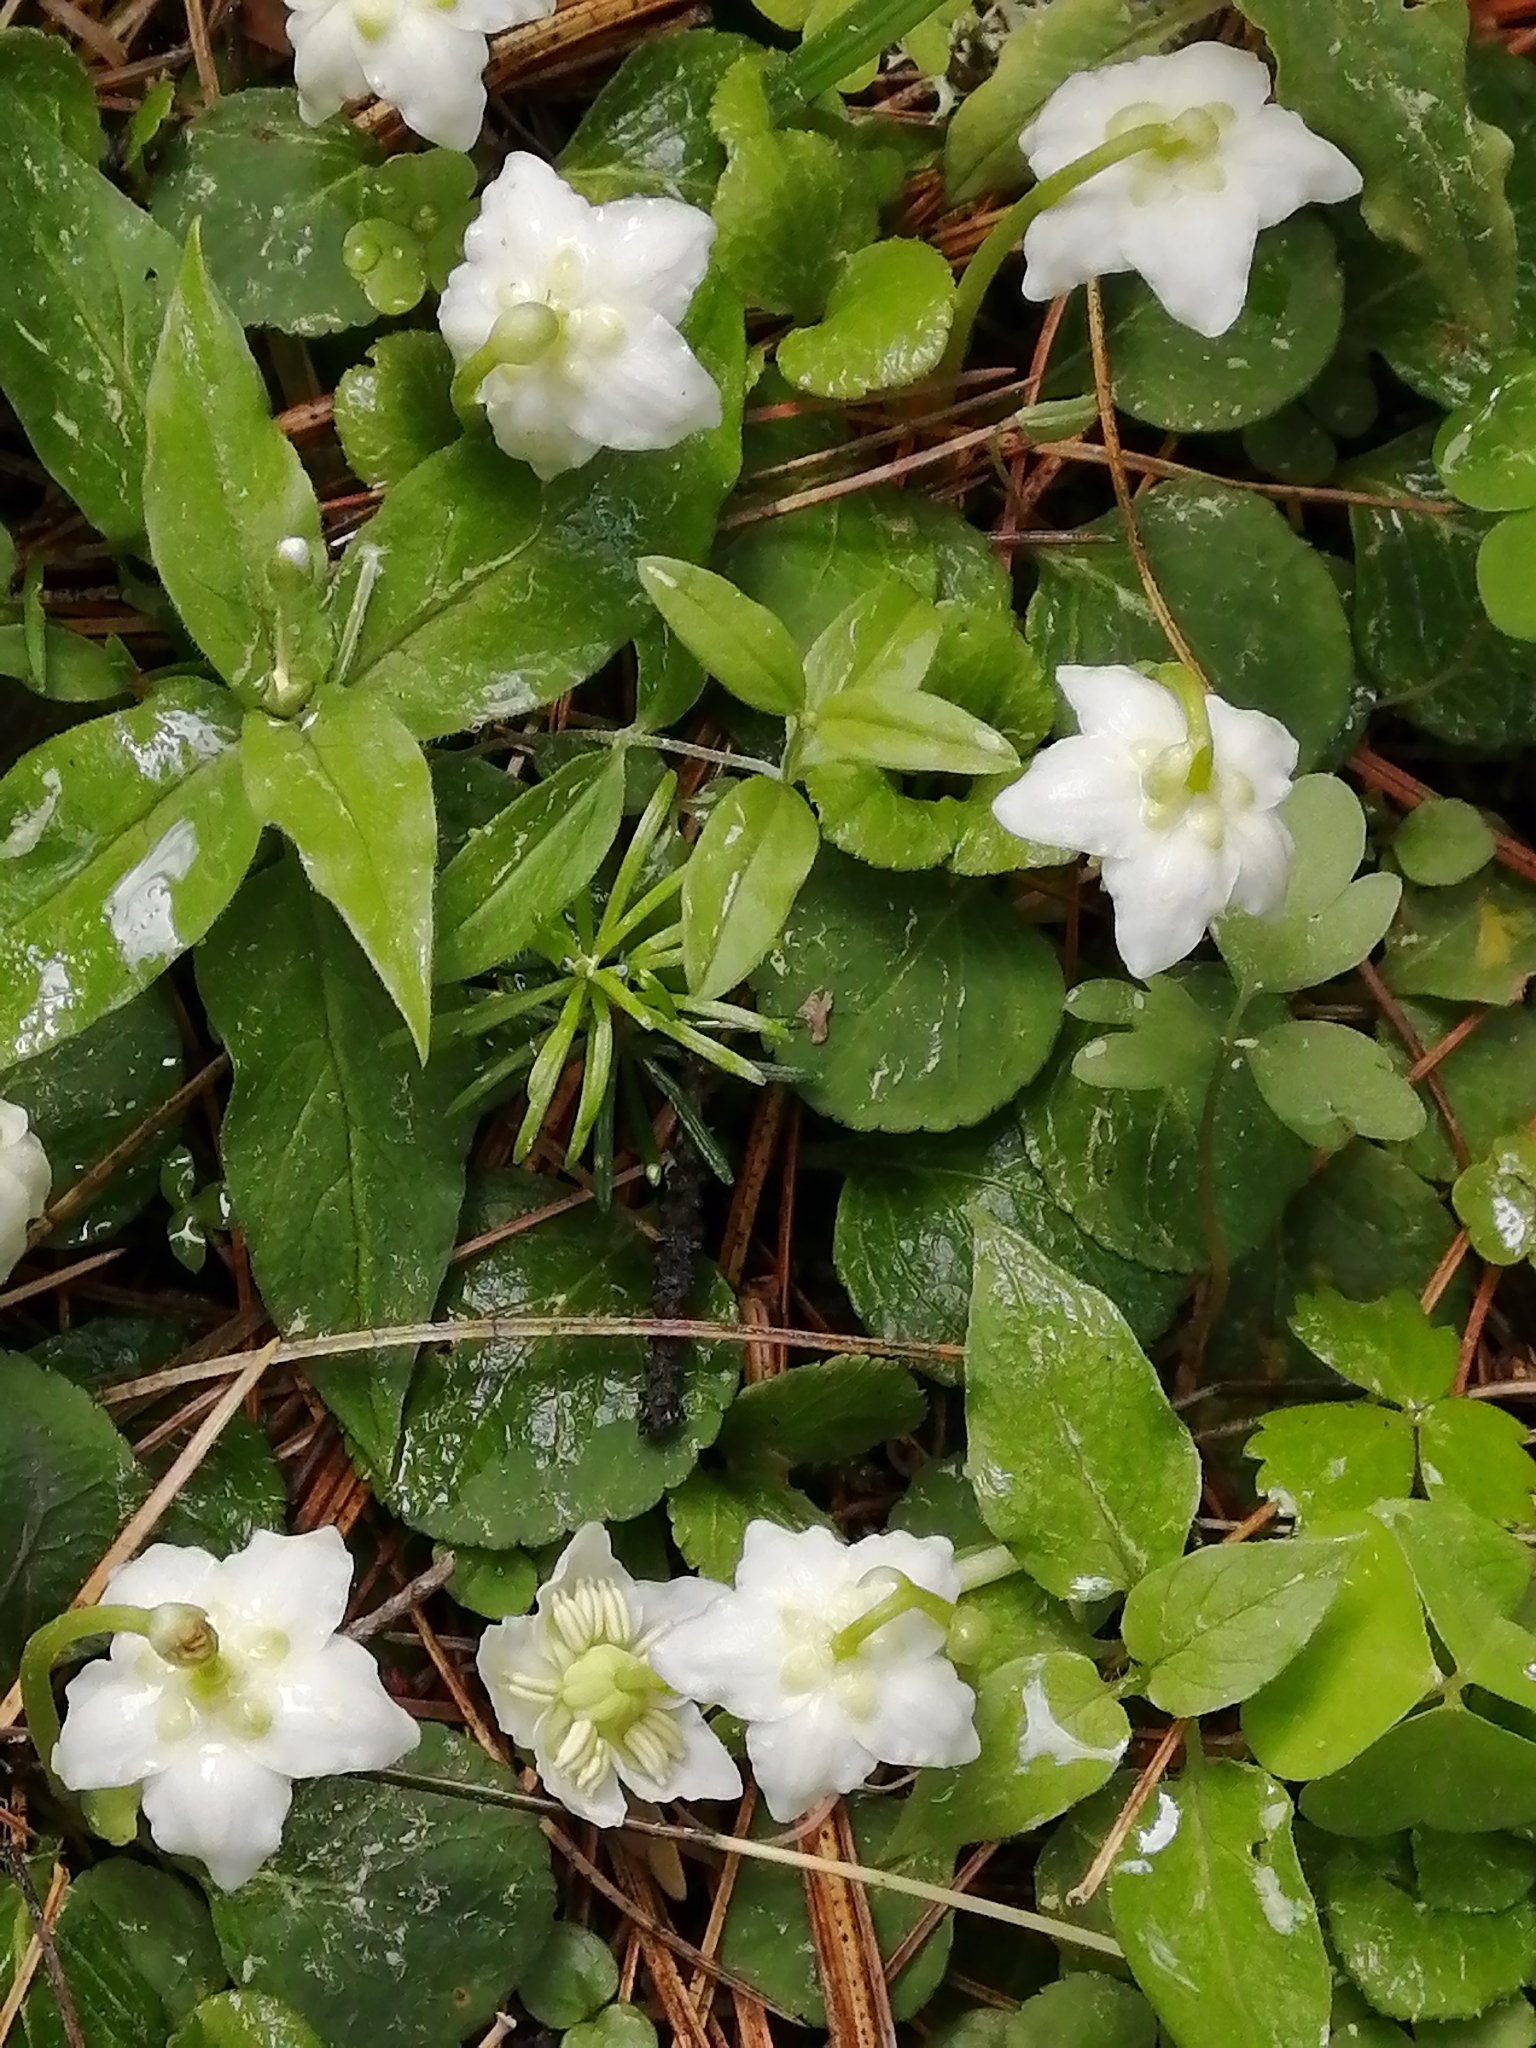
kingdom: Plantae
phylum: Tracheophyta
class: Magnoliopsida
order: Ericales
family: Ericaceae
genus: Moneses
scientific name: Moneses uniflora
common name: One-flowered wintergreen
